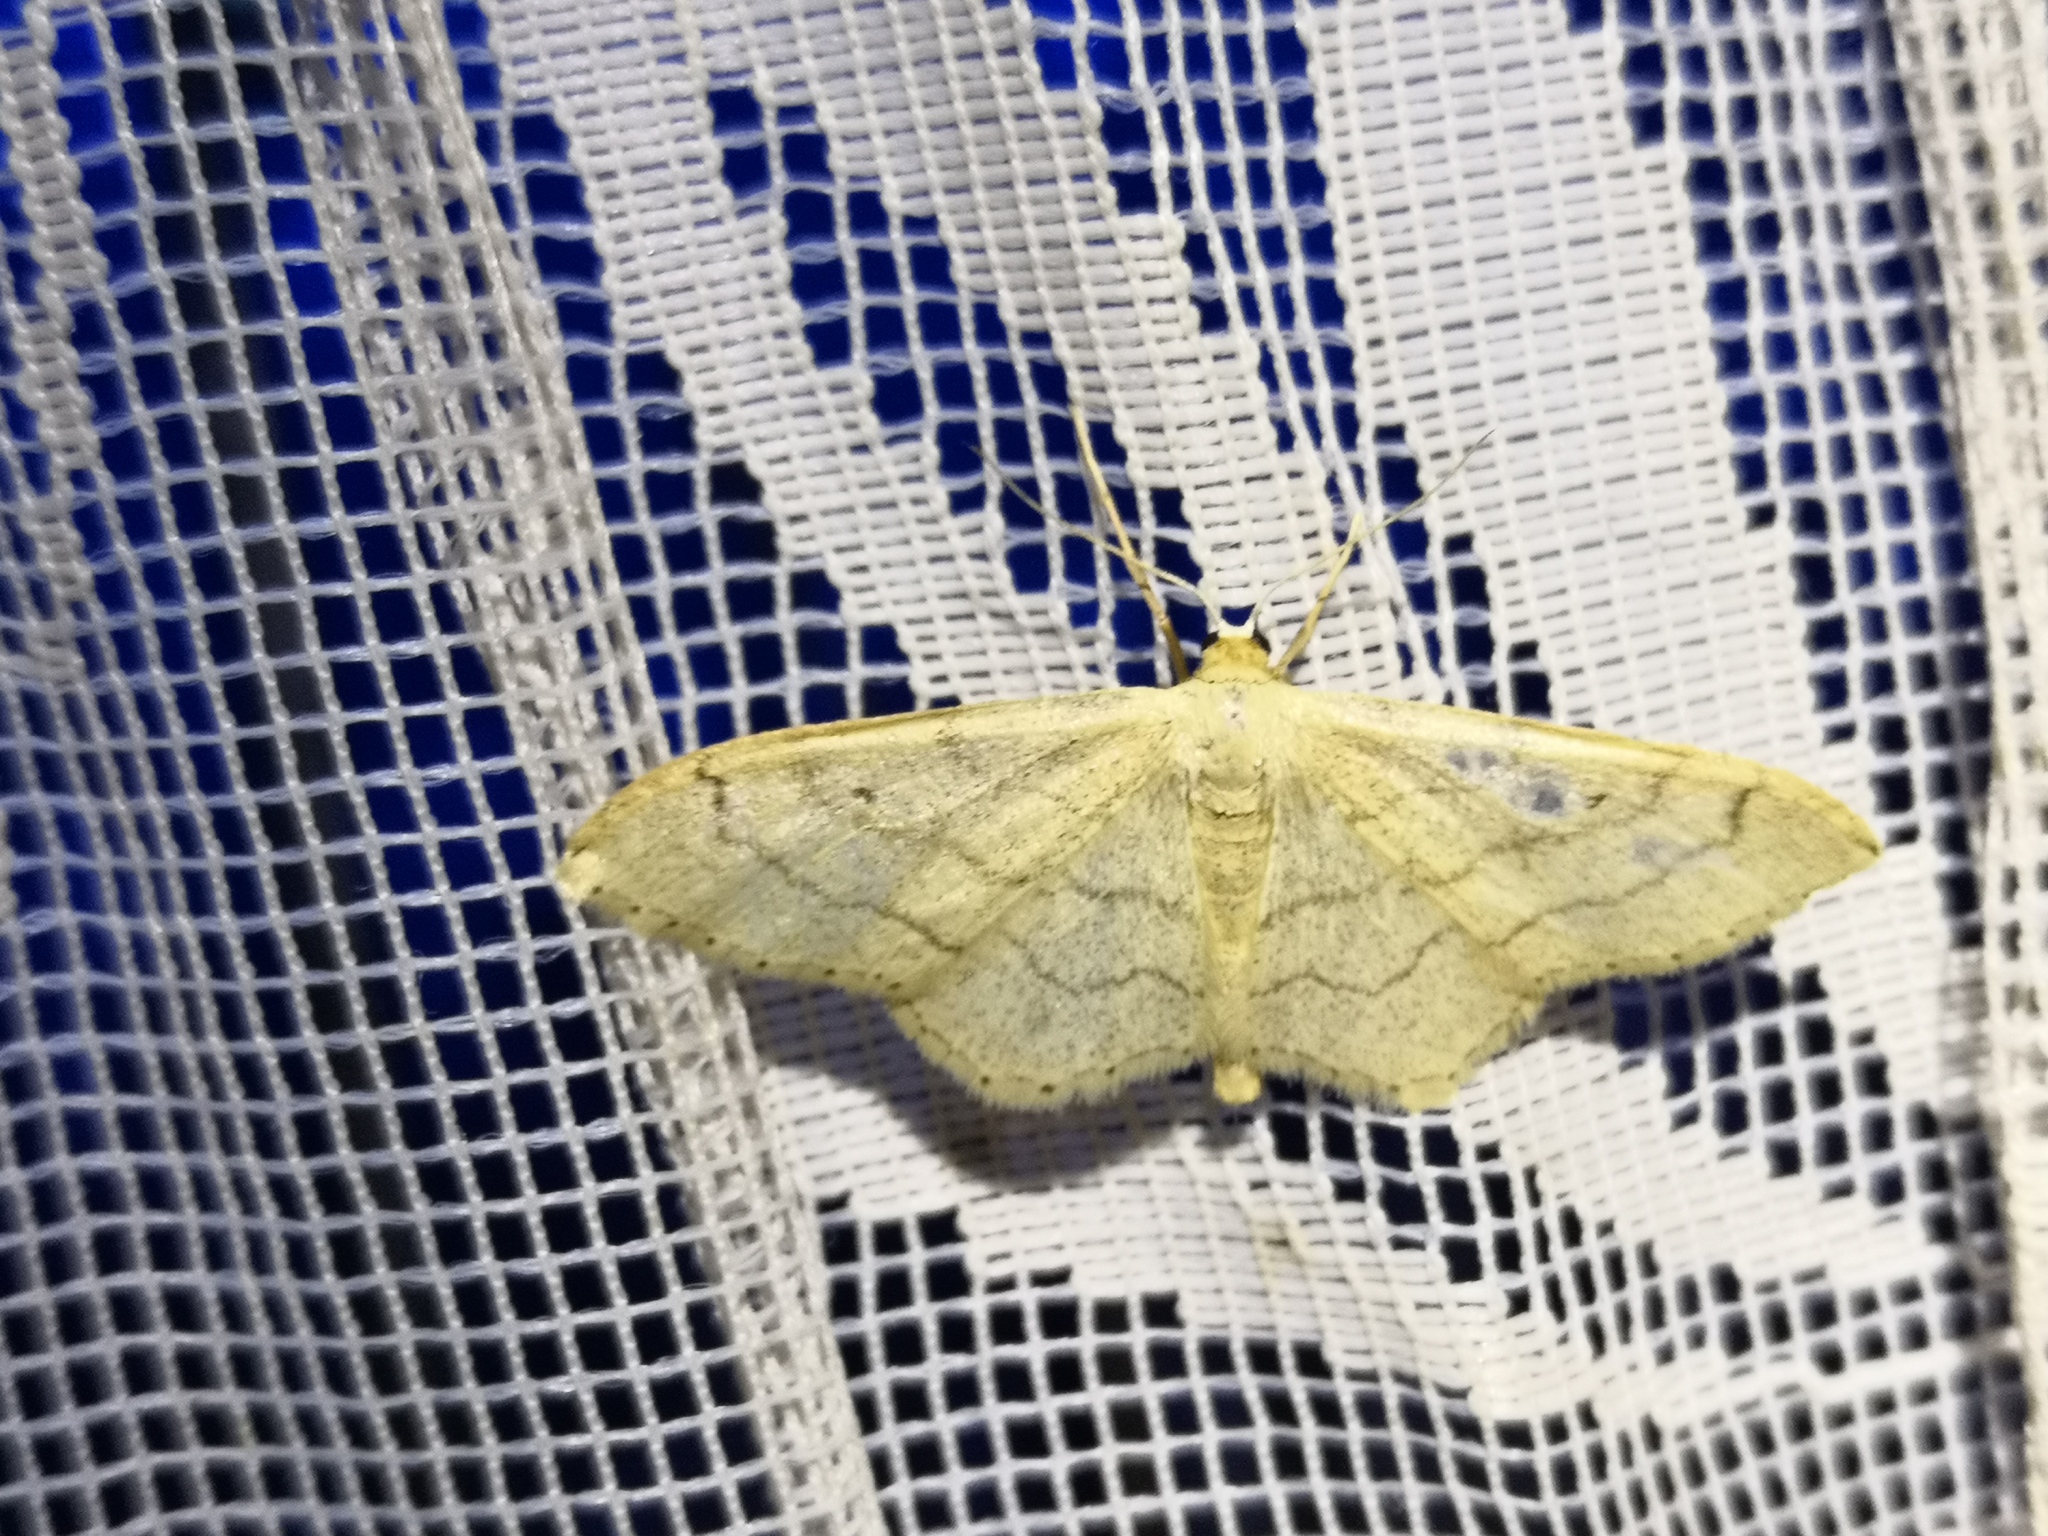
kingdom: Animalia
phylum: Arthropoda
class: Insecta
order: Lepidoptera
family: Geometridae
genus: Idaea
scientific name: Idaea aversata
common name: Riband wave
